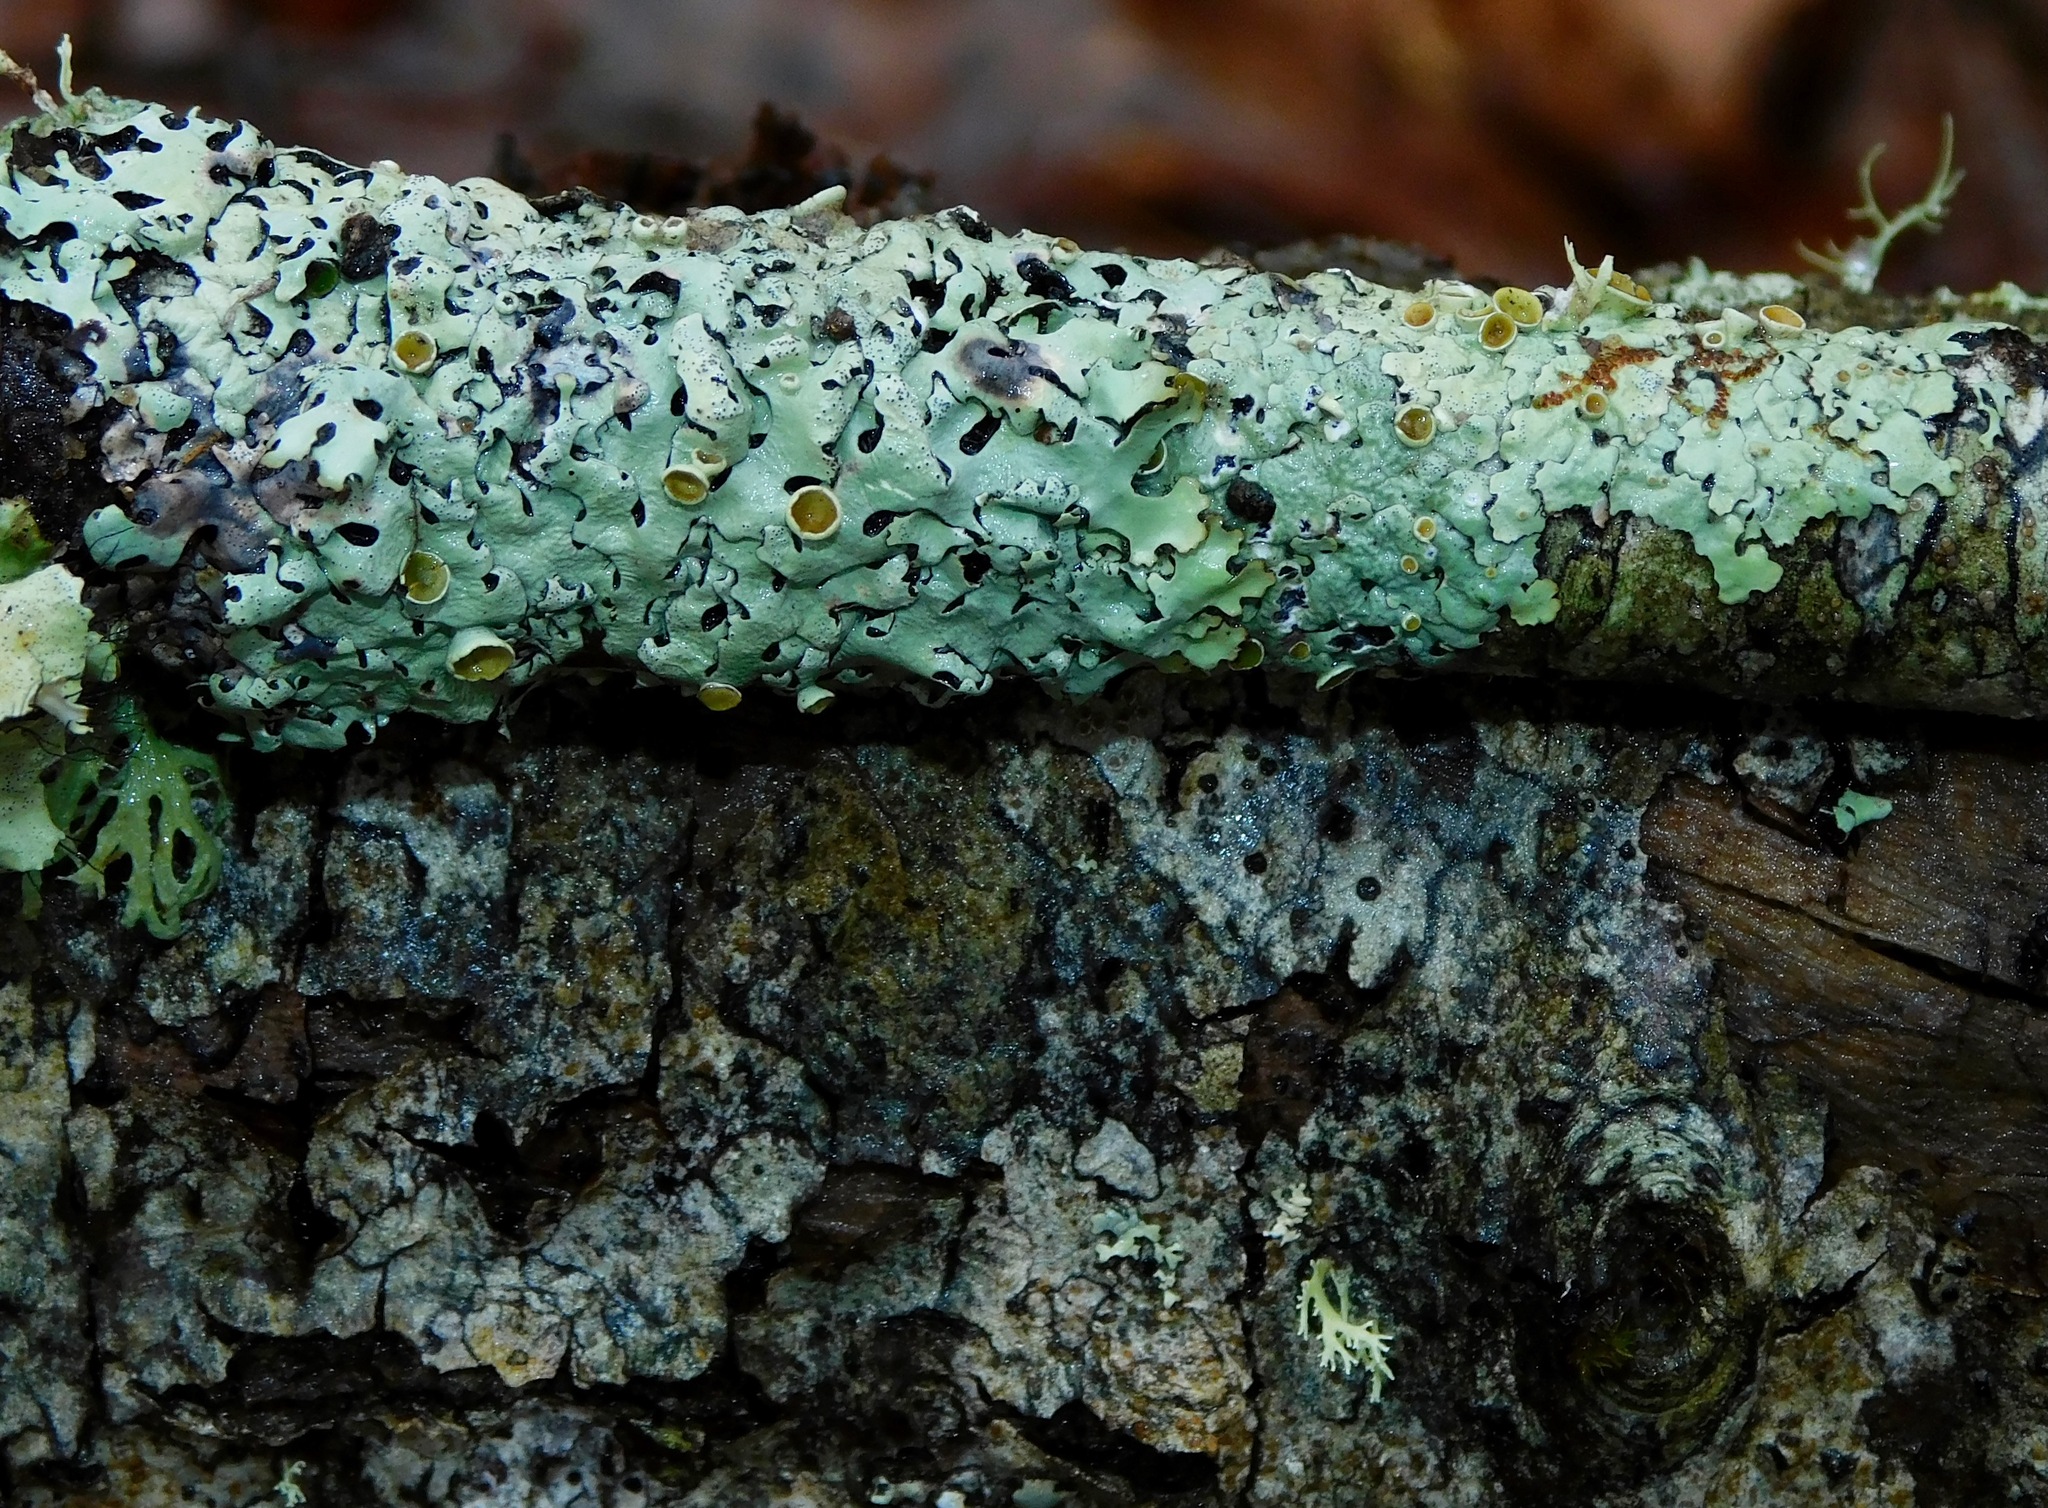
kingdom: Fungi
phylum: Ascomycota
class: Lecanoromycetes
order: Lecanorales
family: Parmeliaceae
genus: Hypotrachyna
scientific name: Hypotrachyna livida
